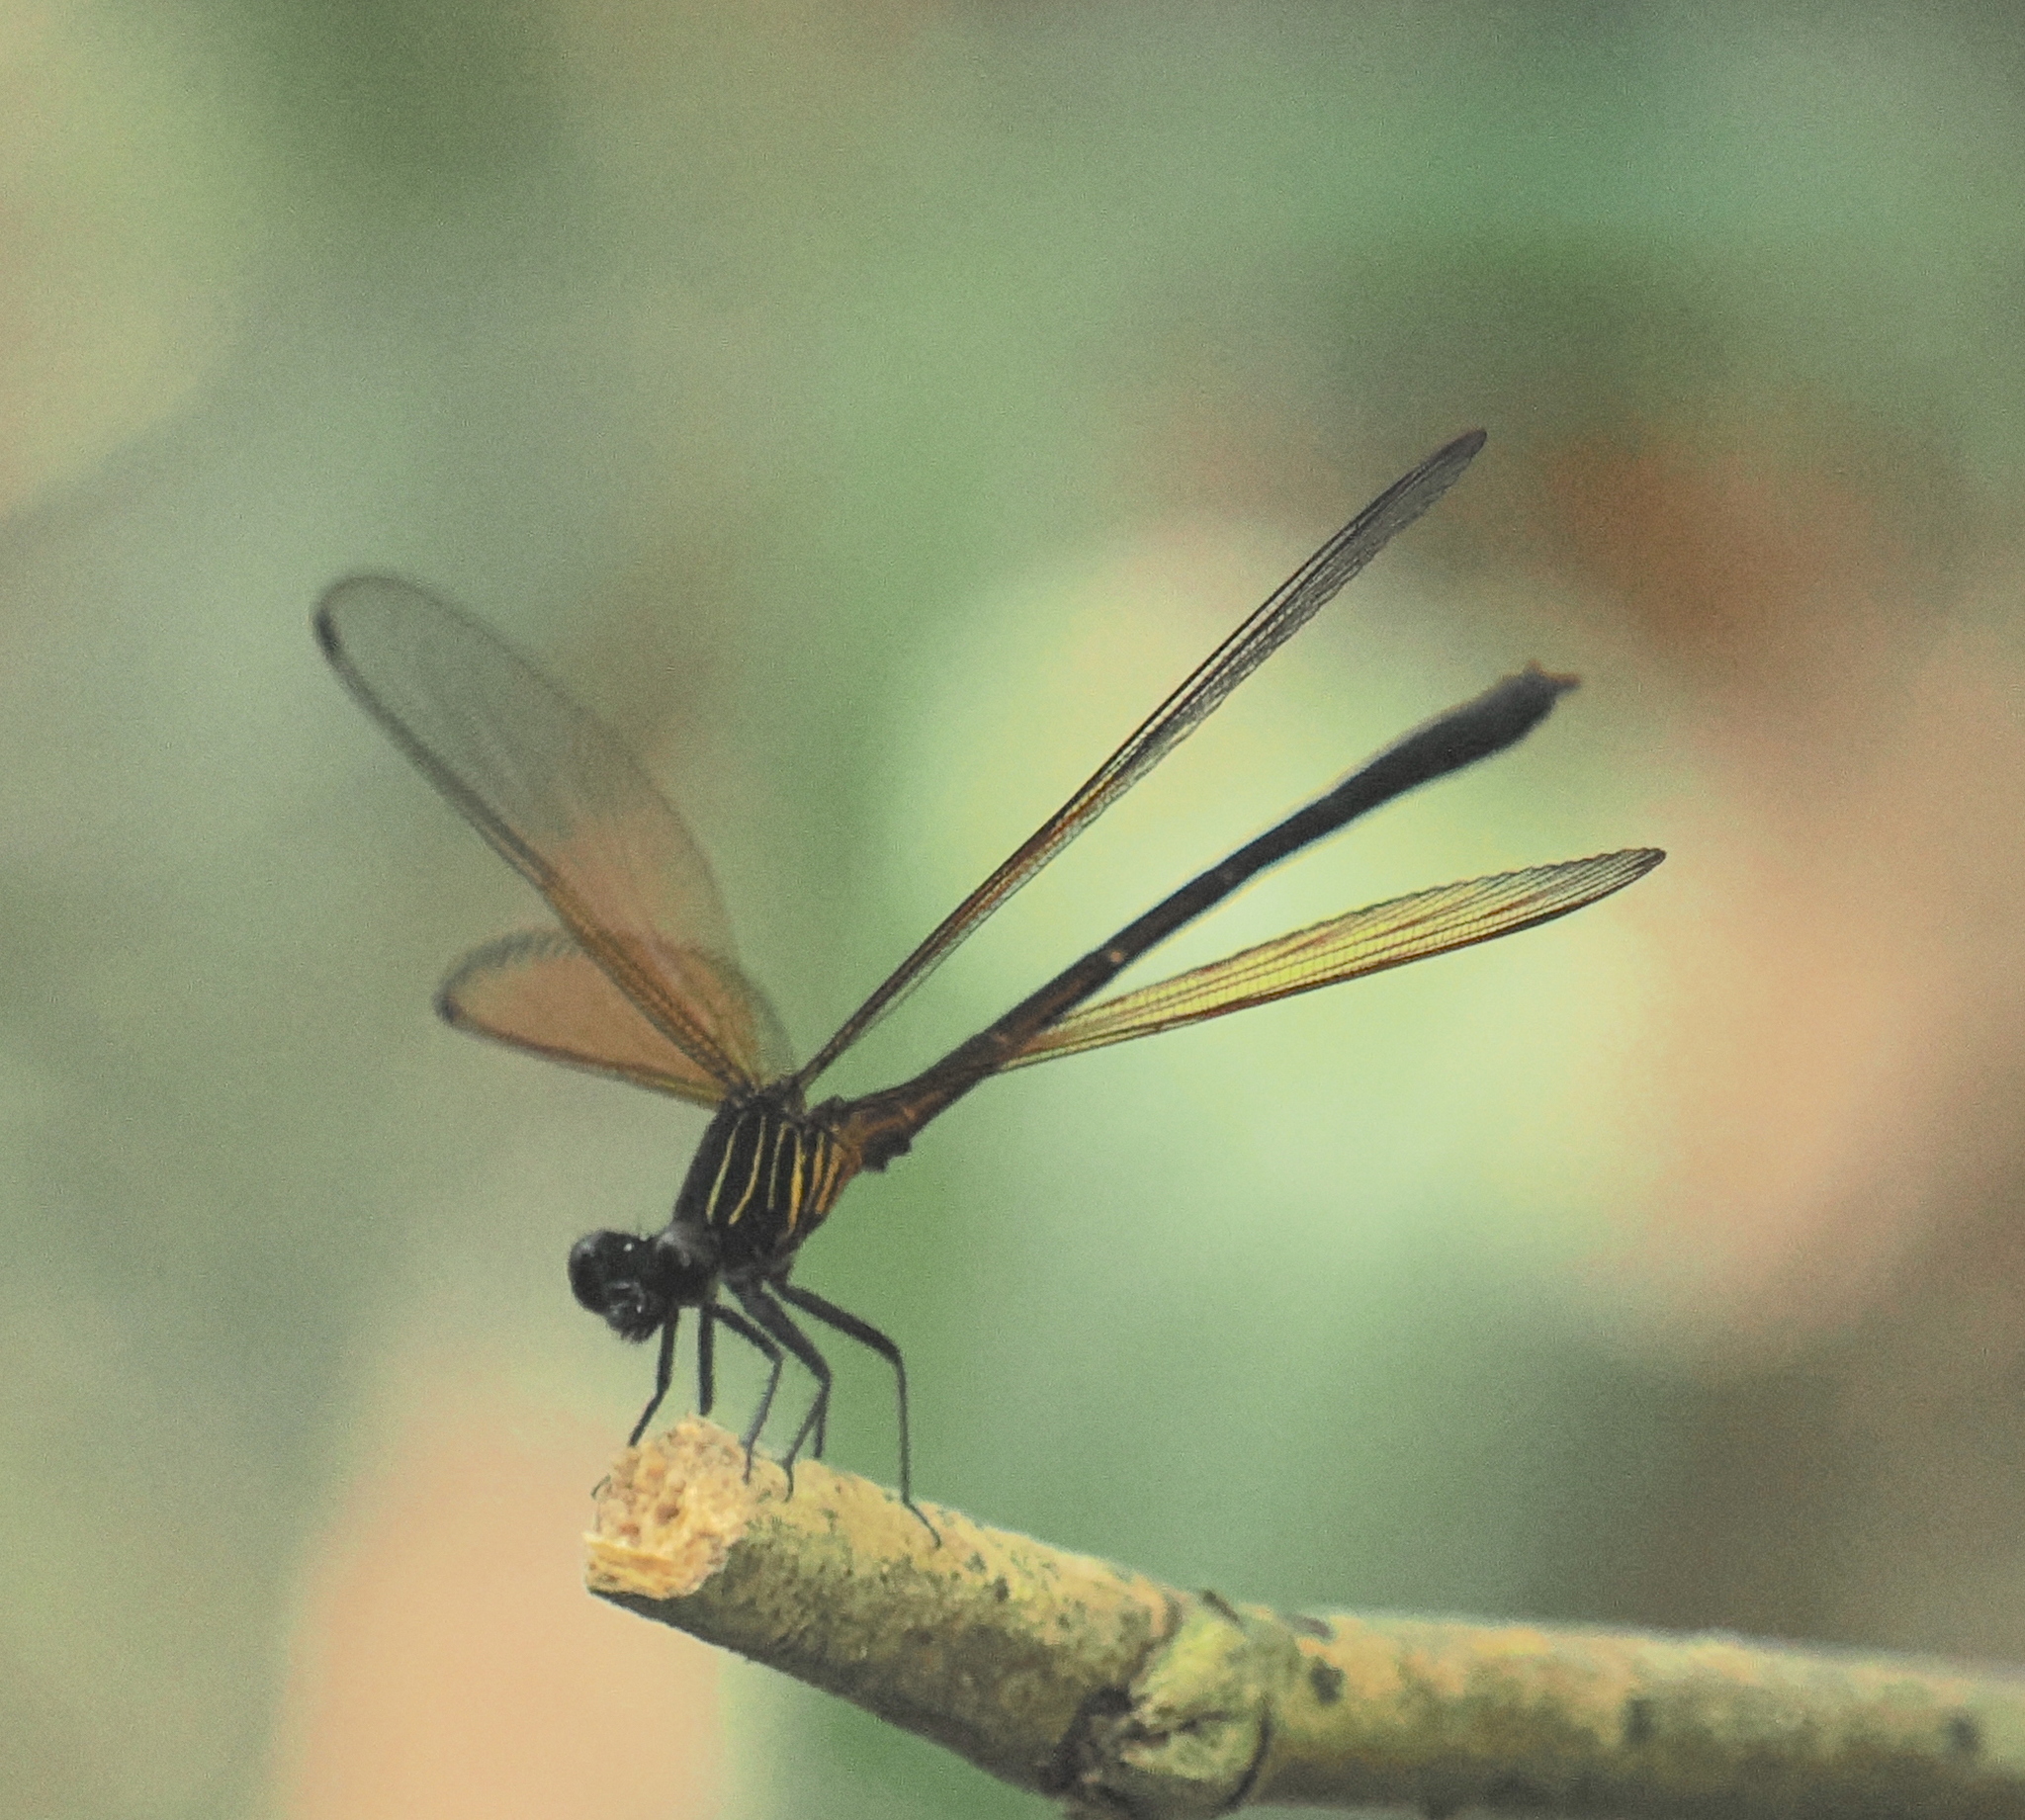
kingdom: Animalia
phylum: Arthropoda
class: Insecta
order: Odonata
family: Euphaeidae
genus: Euphaea
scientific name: Euphaea ochracea
